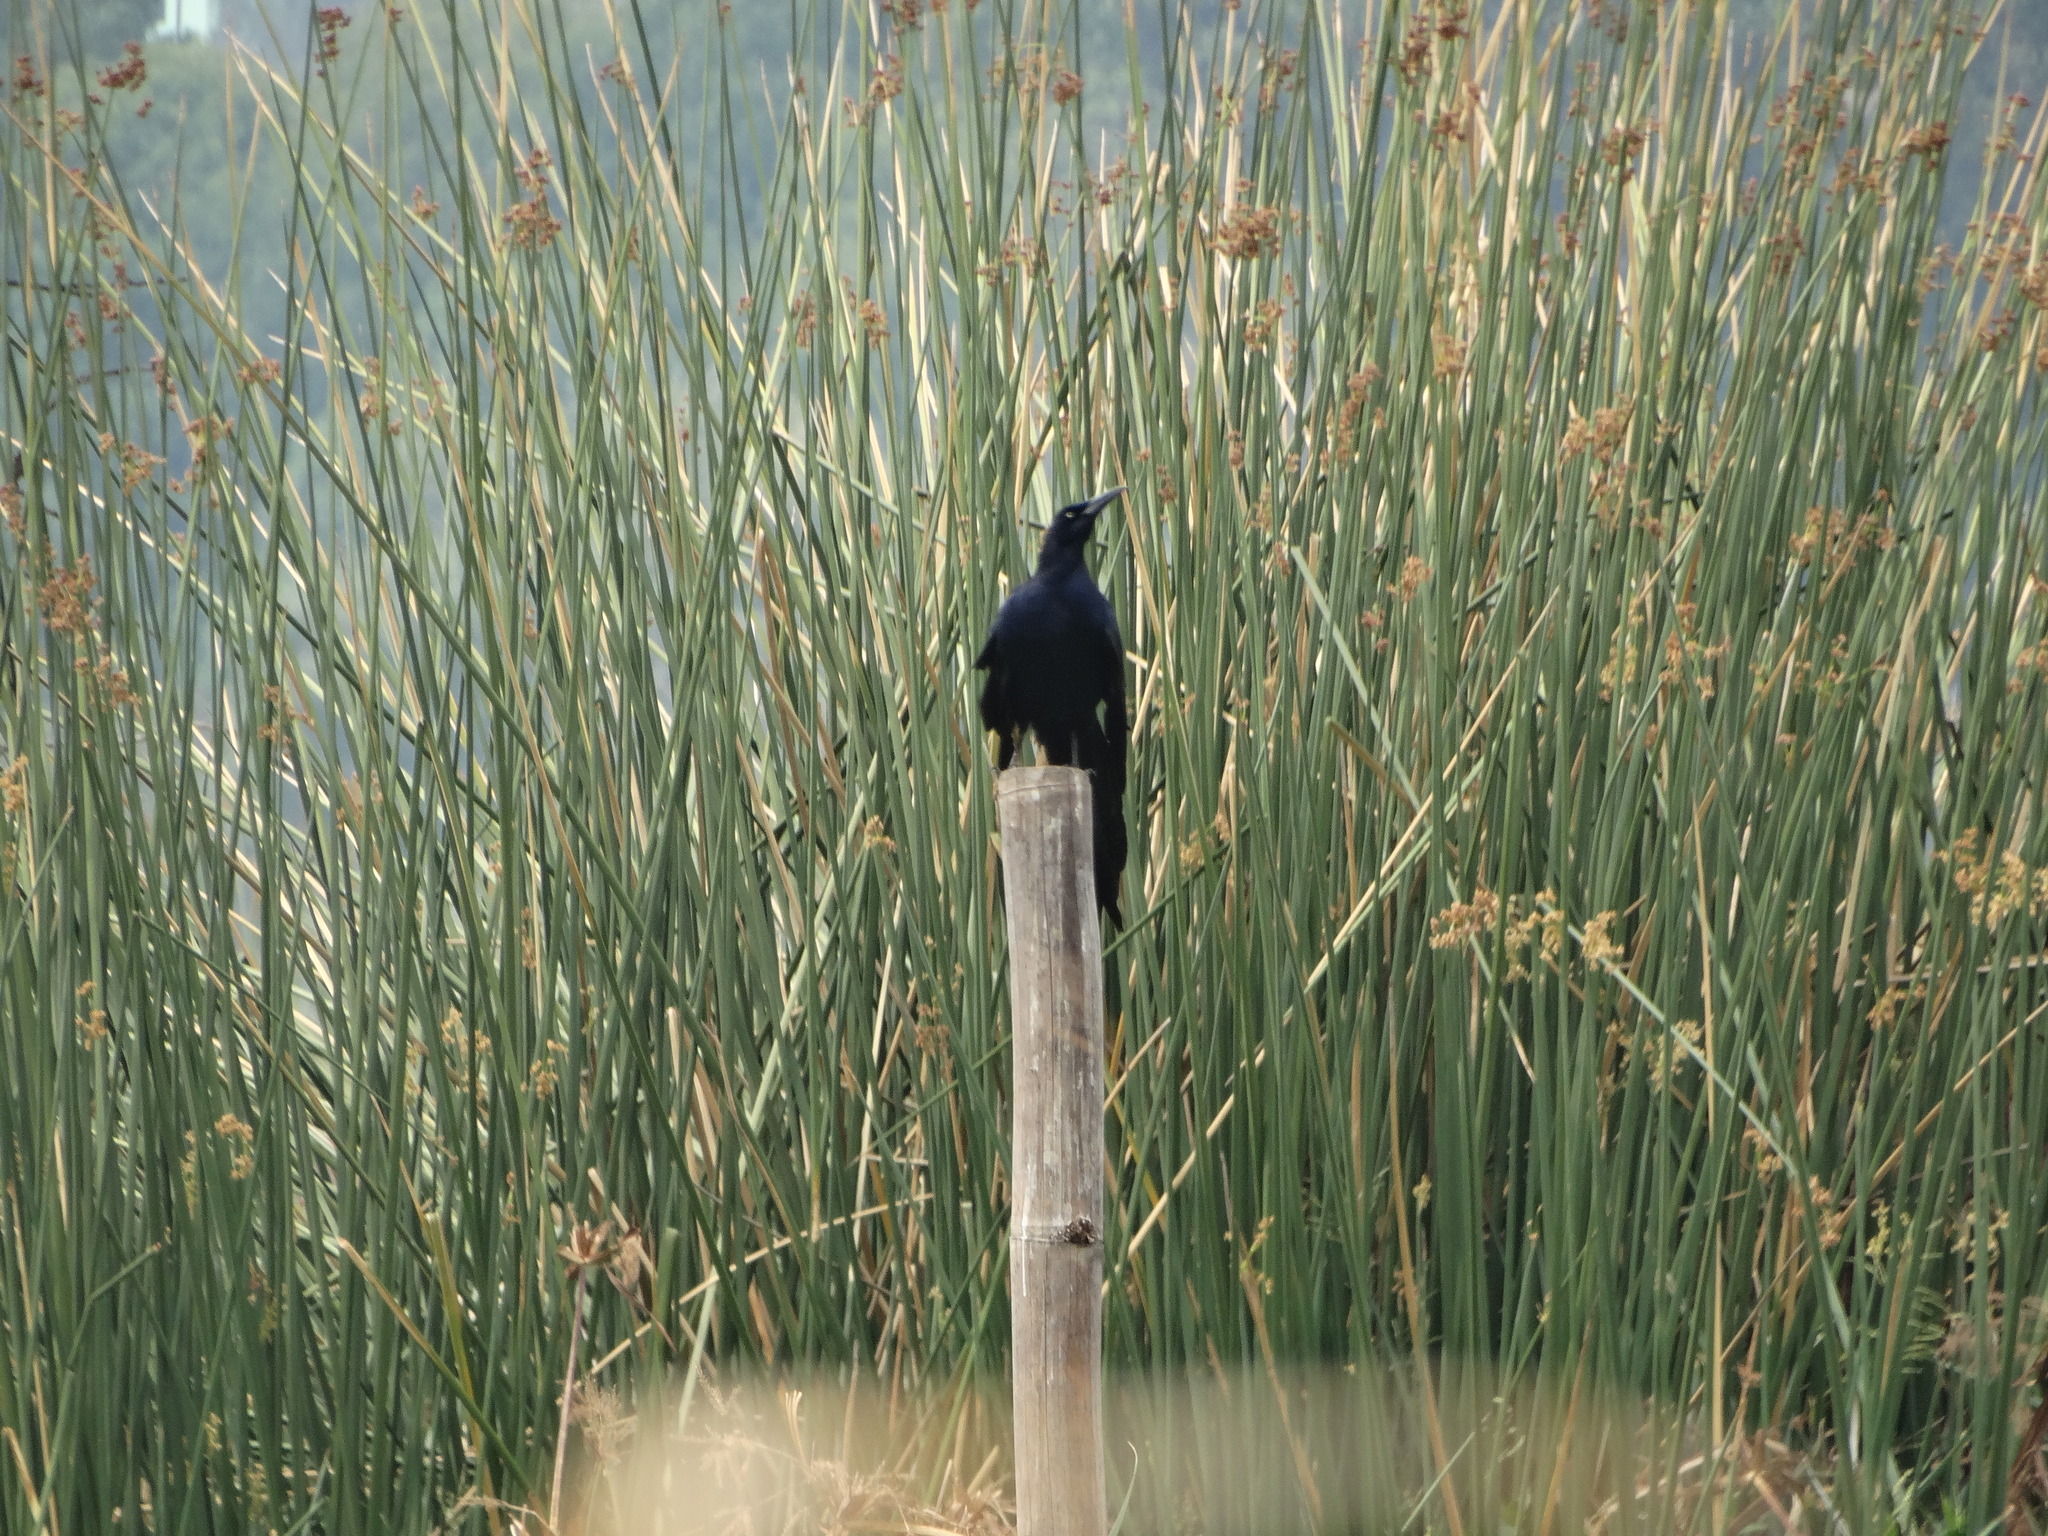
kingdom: Animalia
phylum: Chordata
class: Aves
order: Passeriformes
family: Icteridae
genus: Quiscalus
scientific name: Quiscalus mexicanus
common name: Great-tailed grackle
